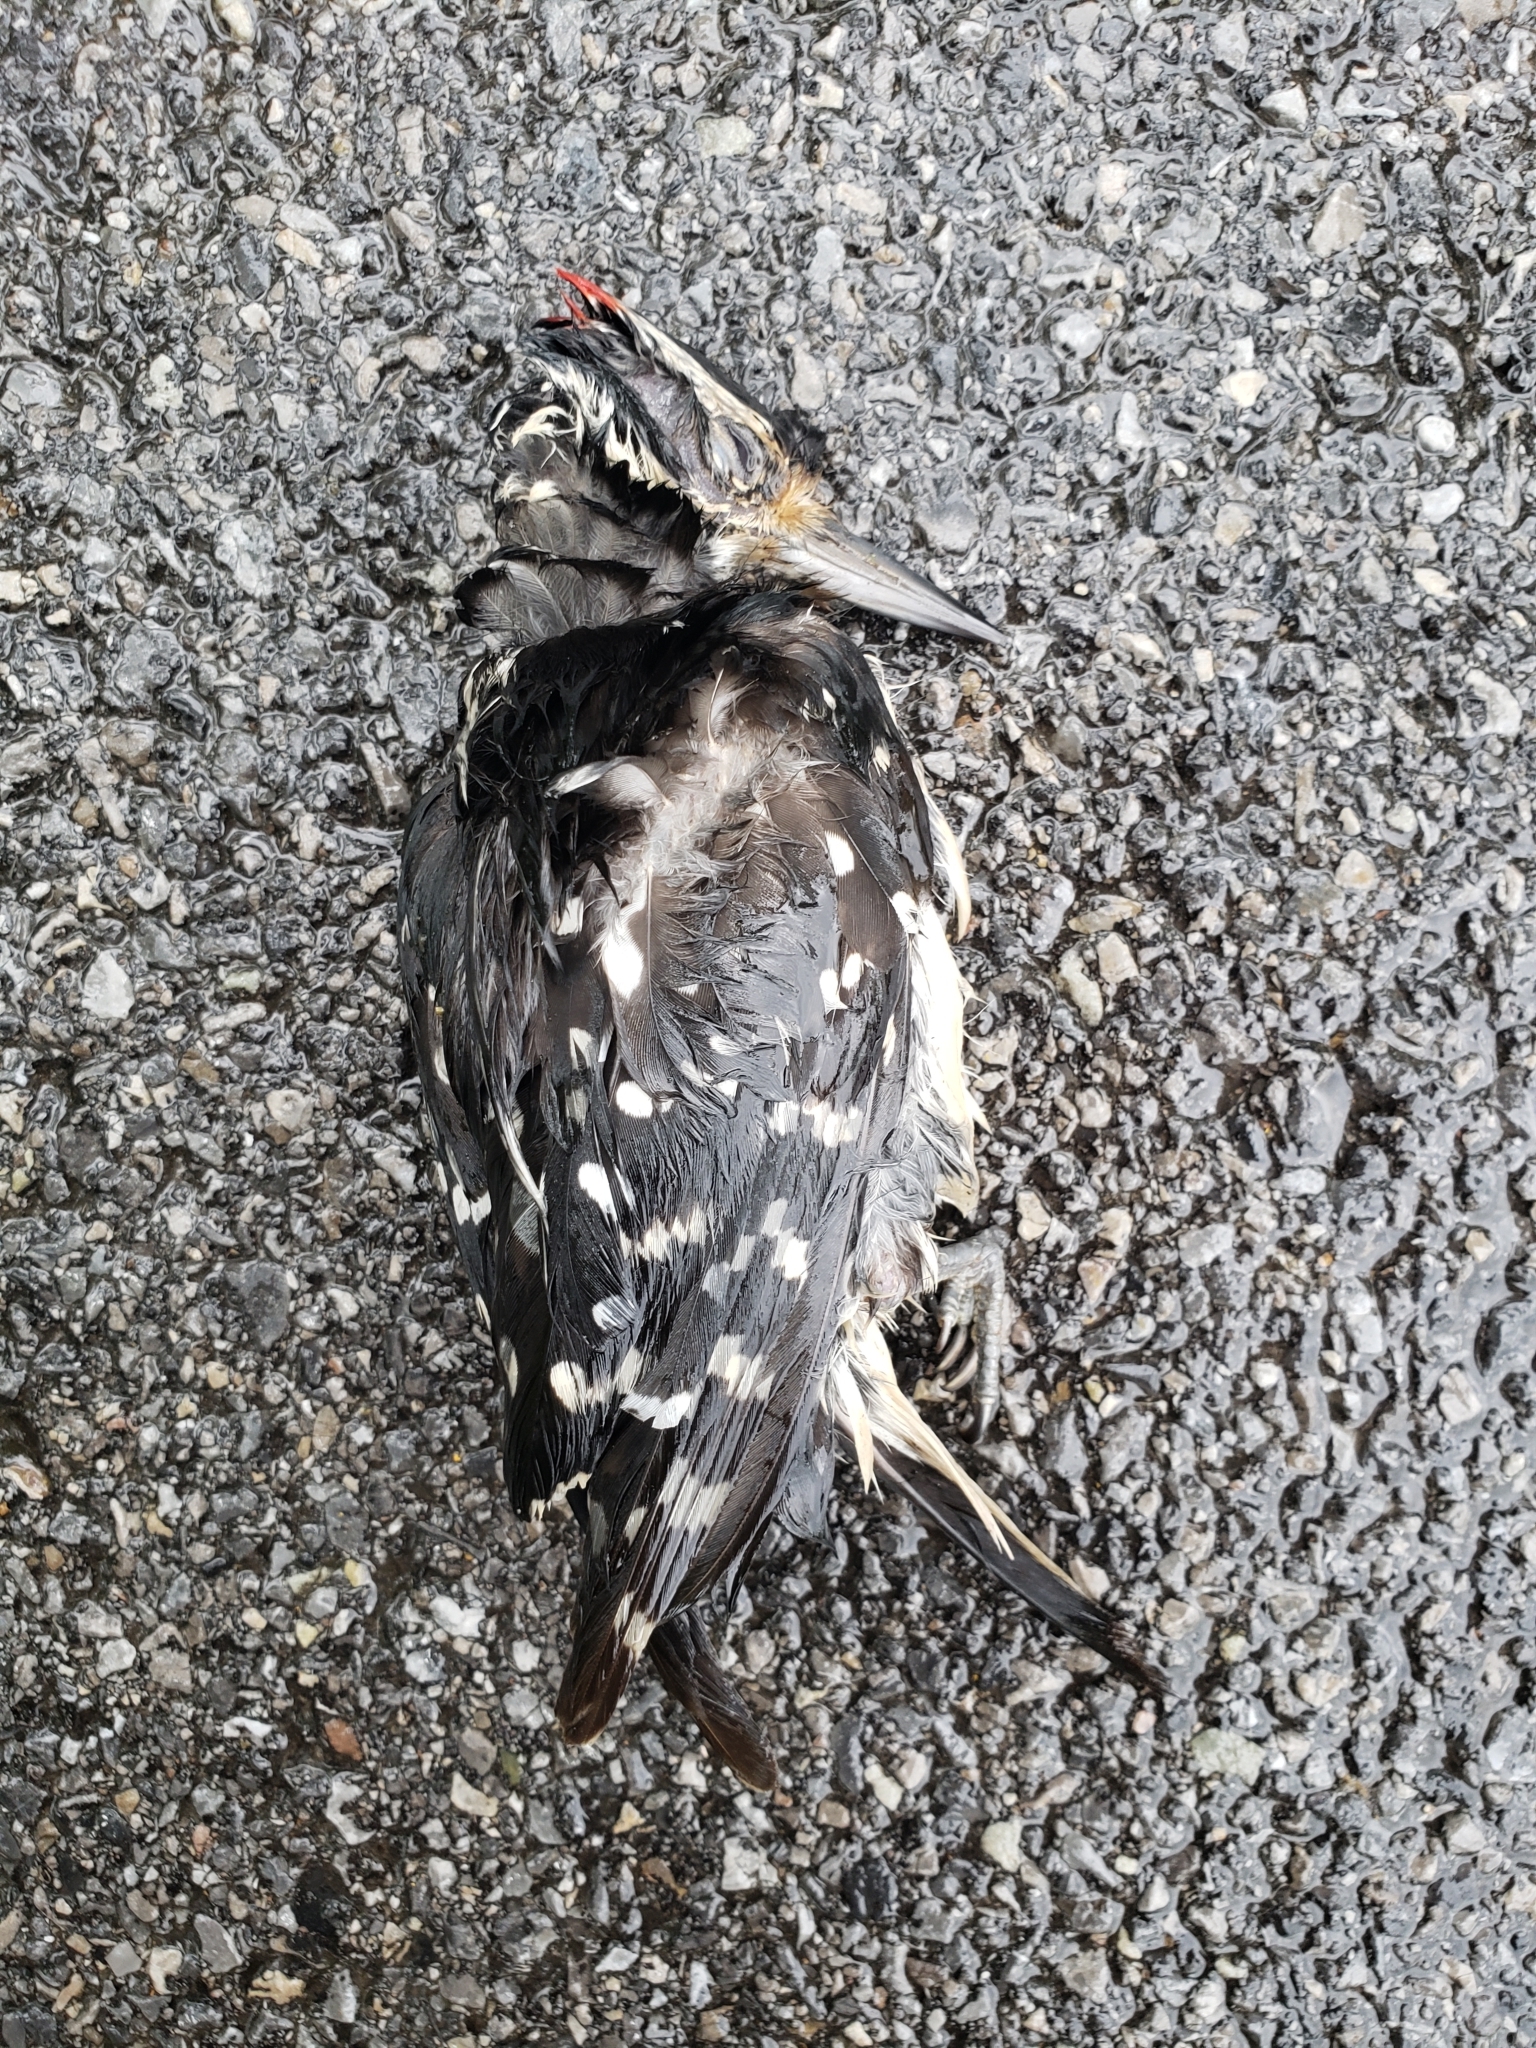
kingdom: Animalia
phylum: Chordata
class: Aves
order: Piciformes
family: Picidae
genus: Leuconotopicus
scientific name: Leuconotopicus villosus
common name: Hairy woodpecker
